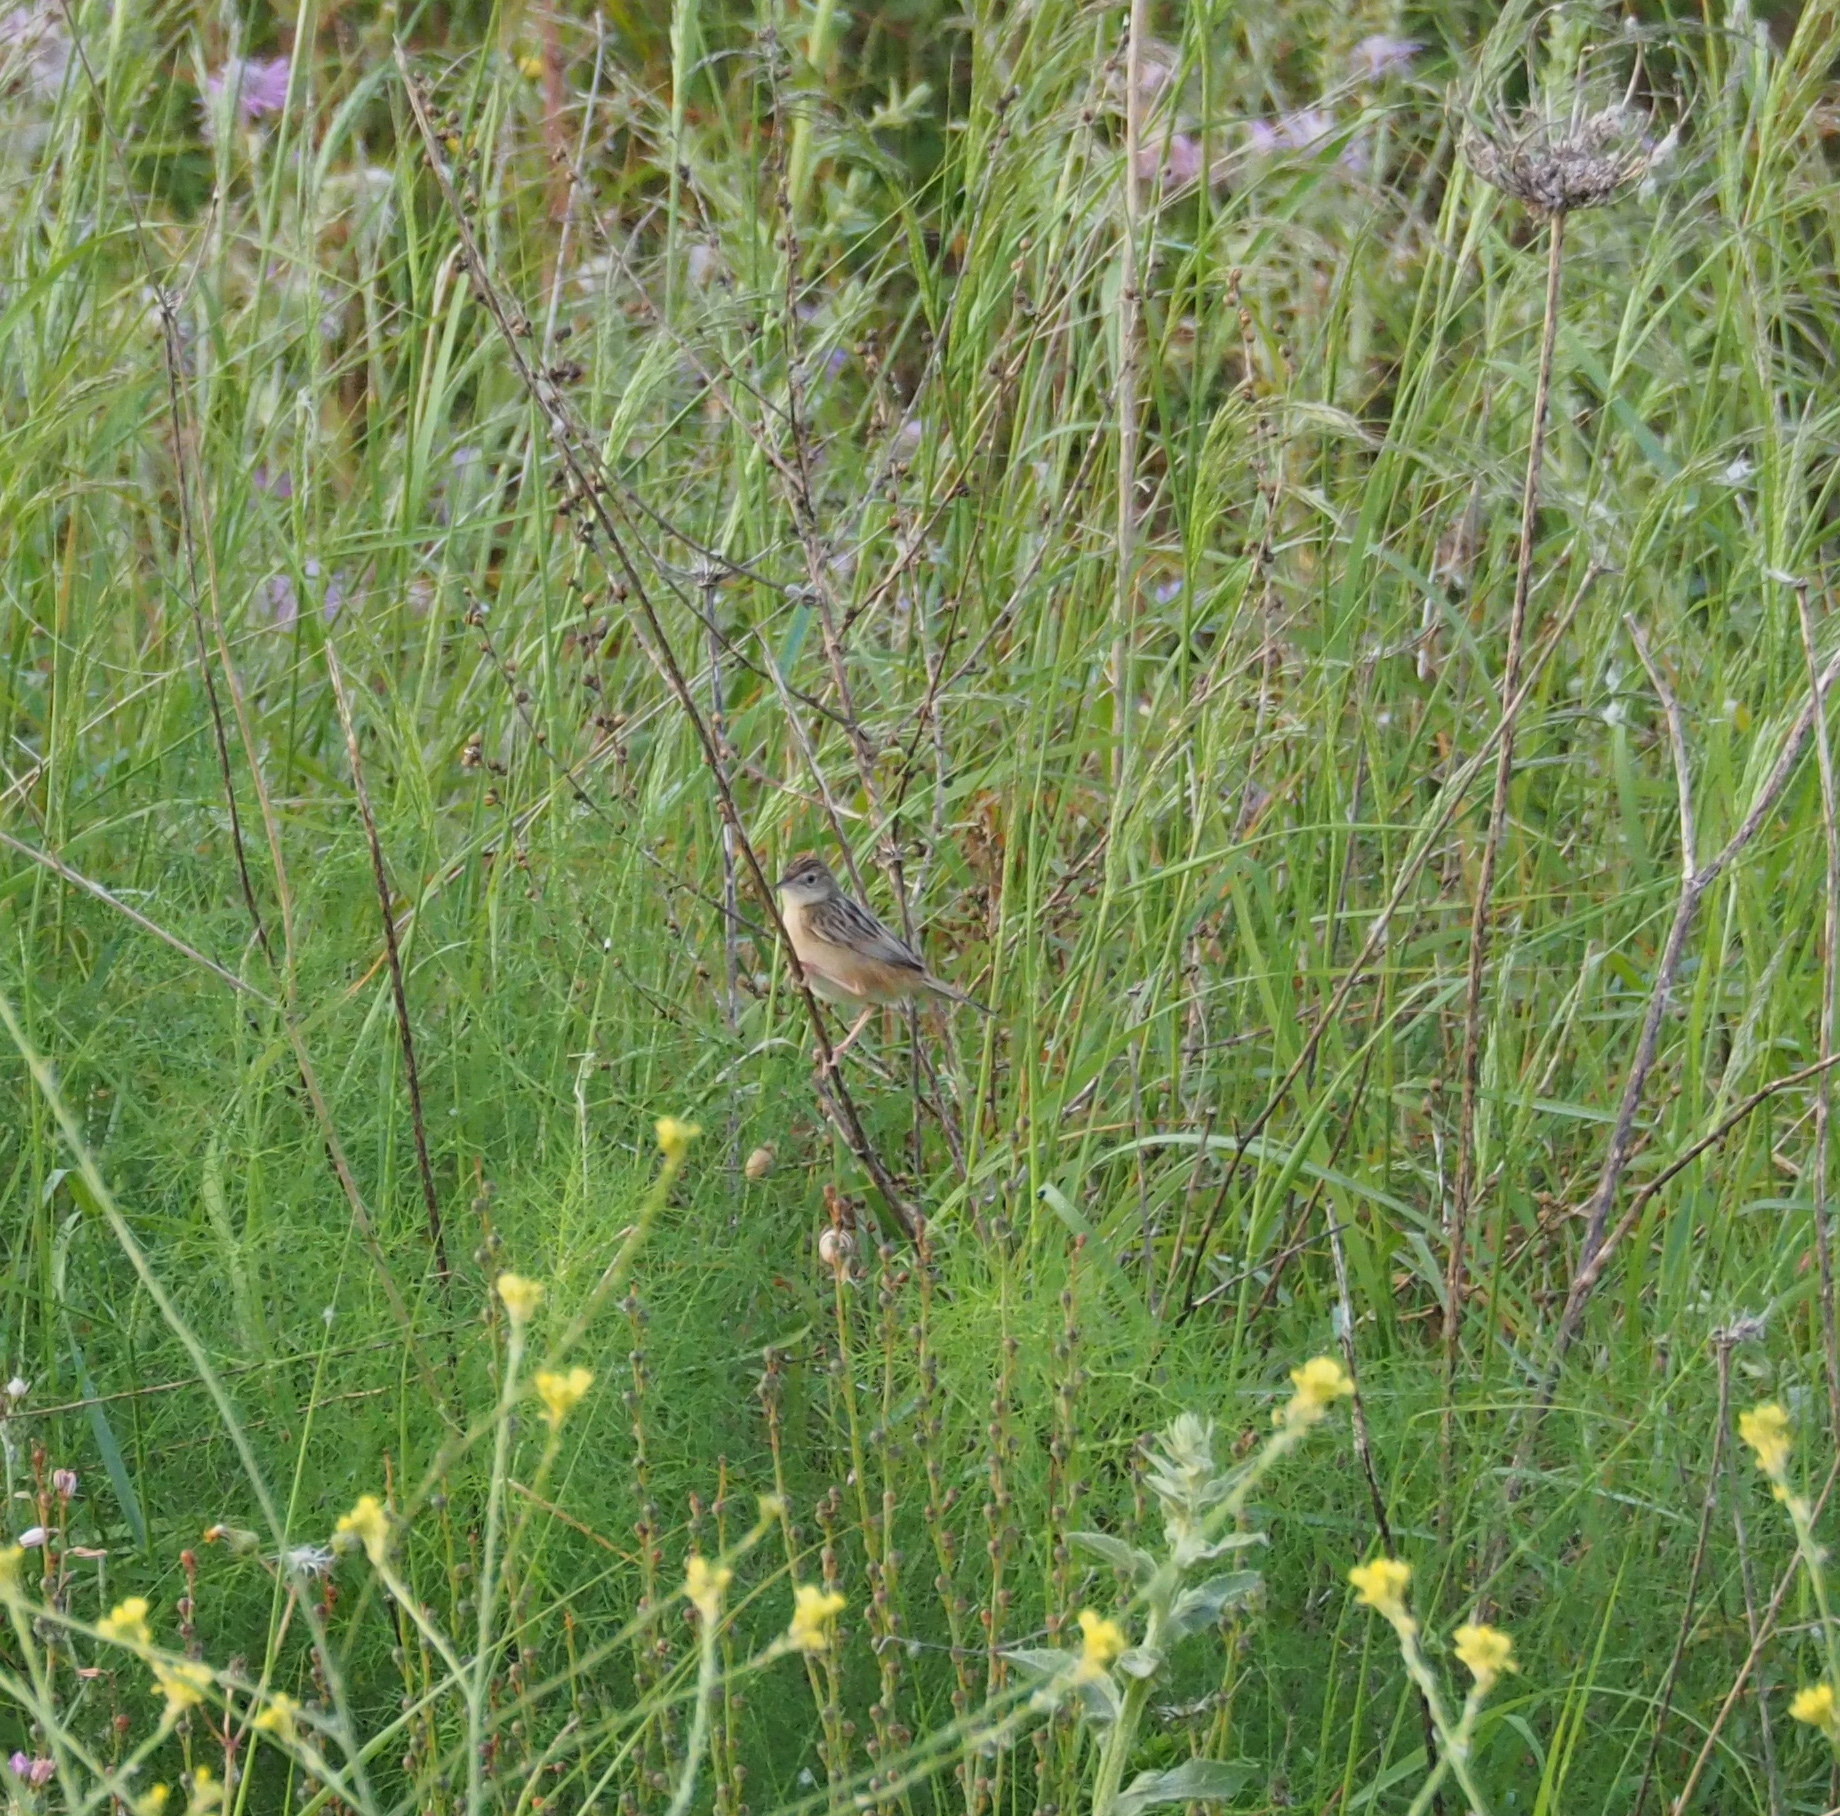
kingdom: Animalia
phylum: Chordata
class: Aves
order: Passeriformes
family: Cisticolidae
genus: Cisticola
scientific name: Cisticola juncidis
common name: Zitting cisticola
